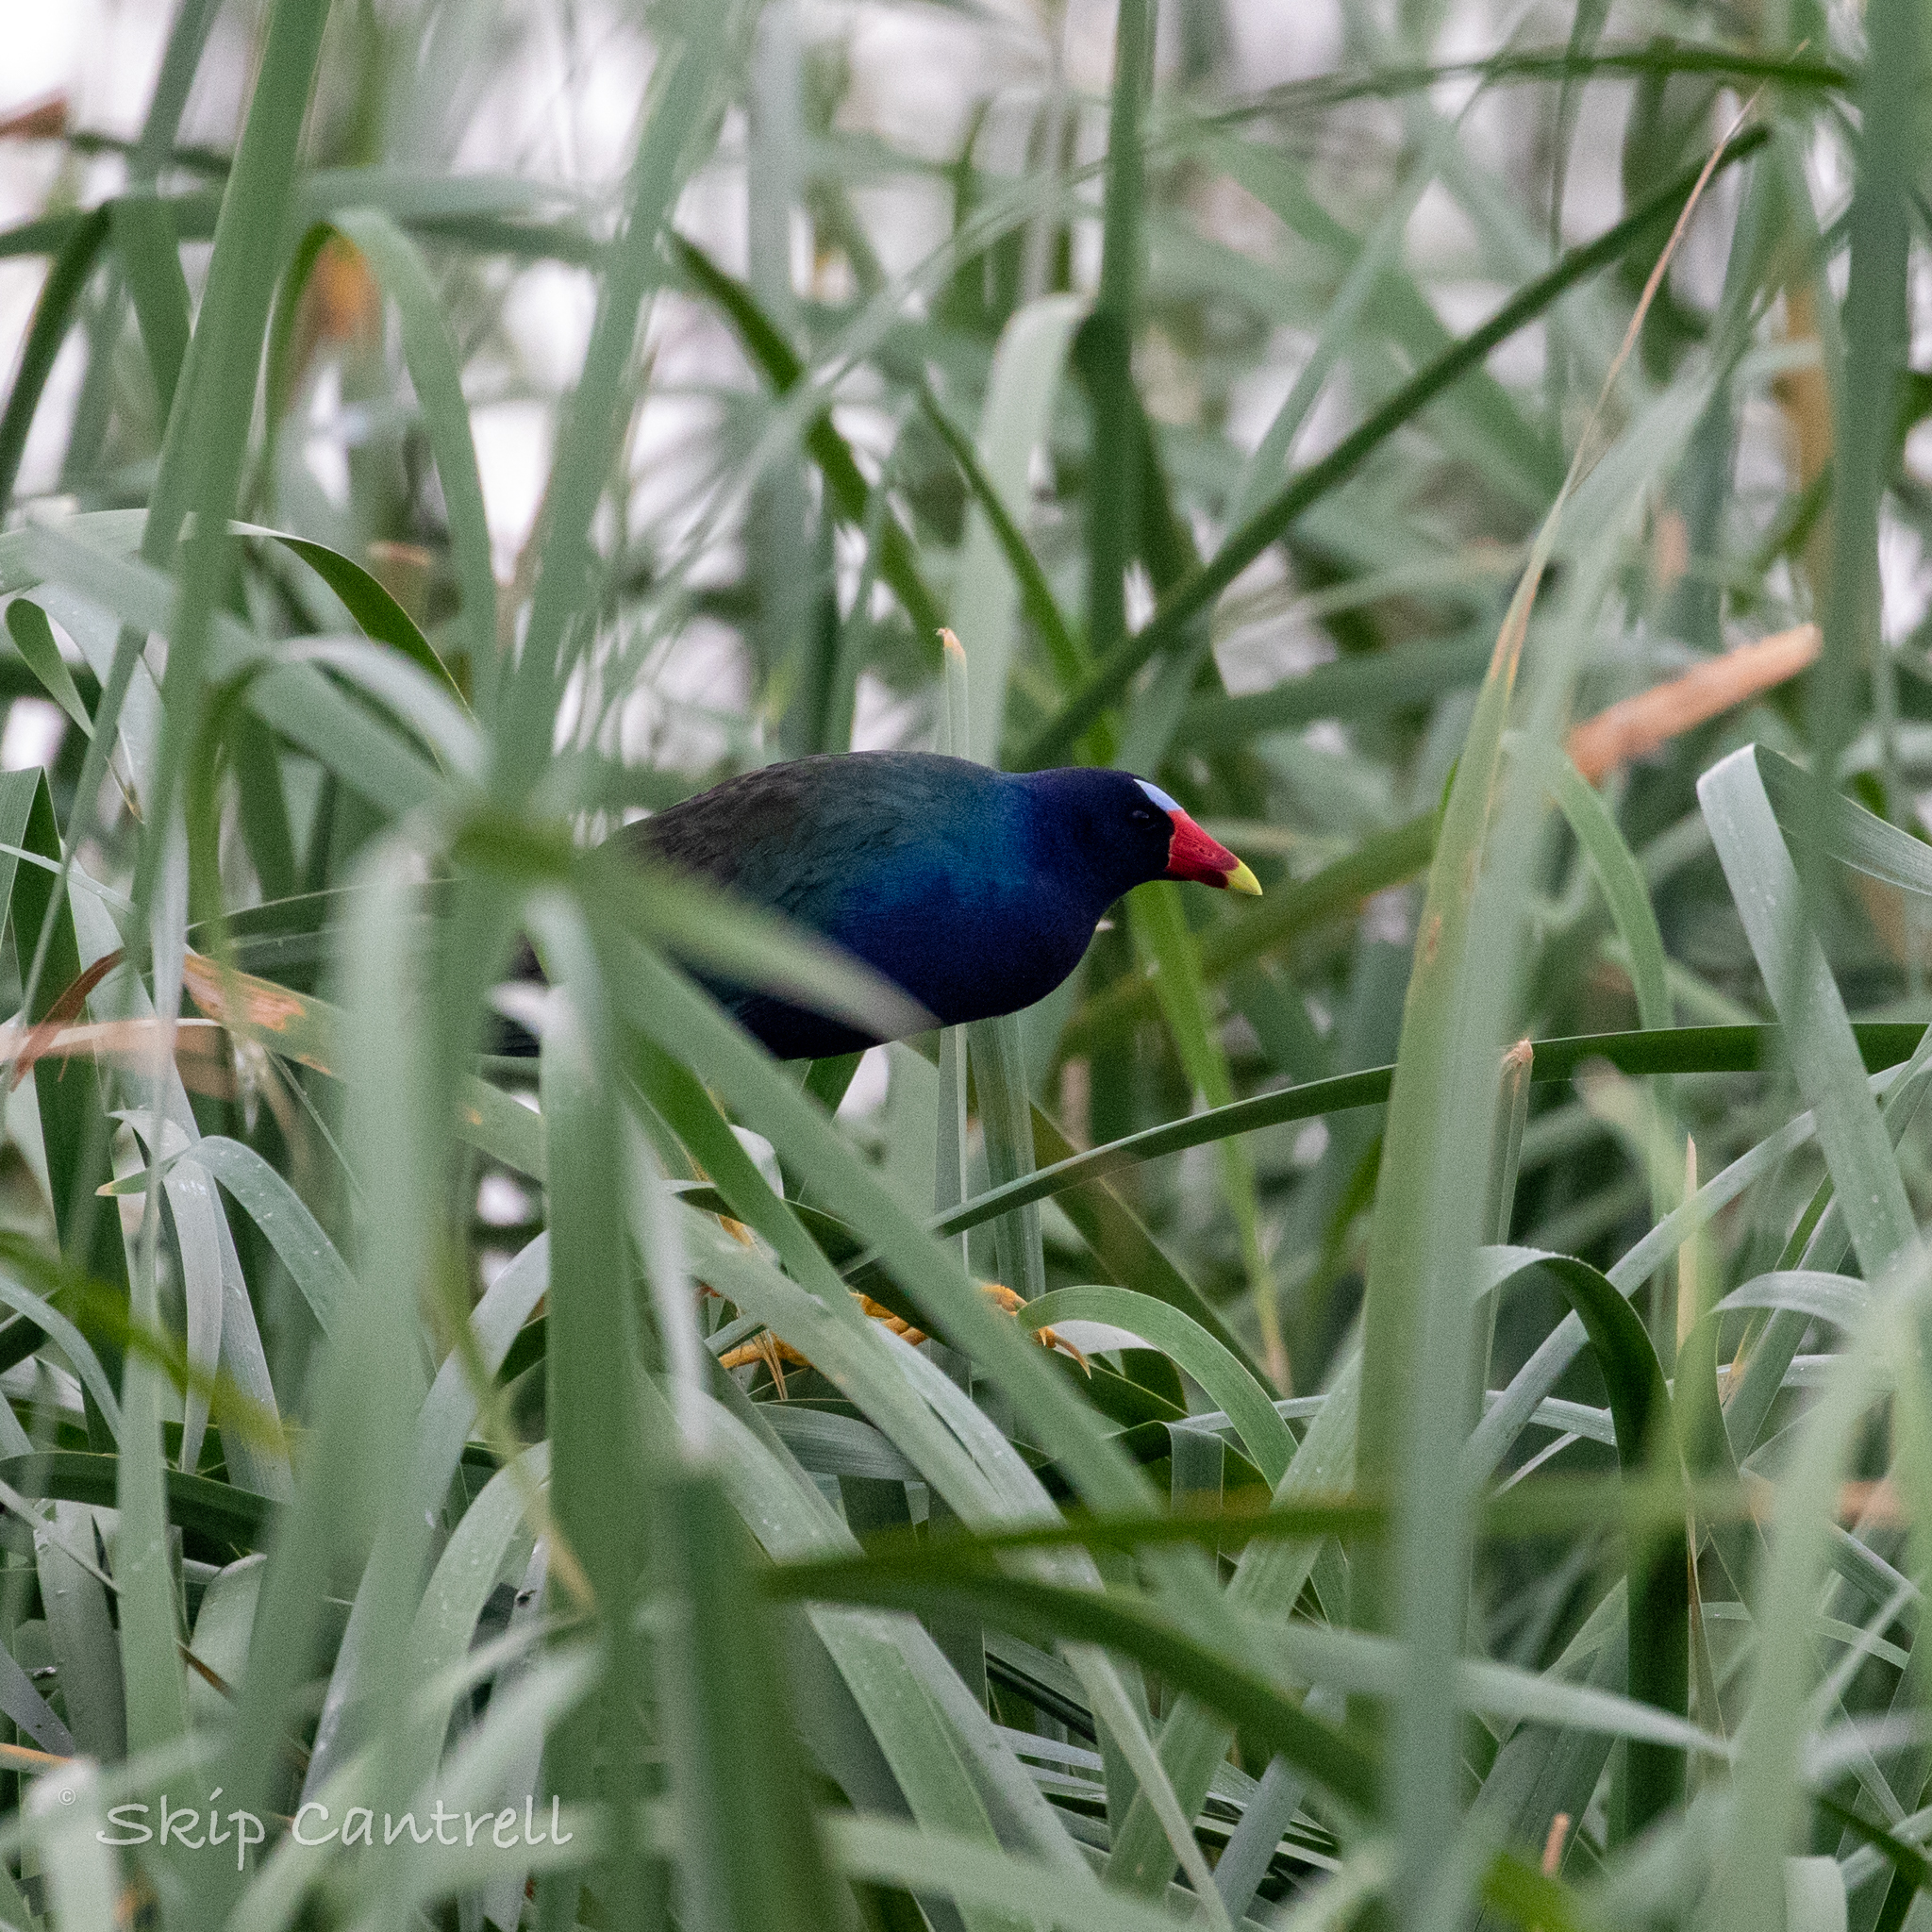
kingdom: Animalia
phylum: Chordata
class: Aves
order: Gruiformes
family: Rallidae
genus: Porphyrio
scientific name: Porphyrio martinica
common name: Purple gallinule
